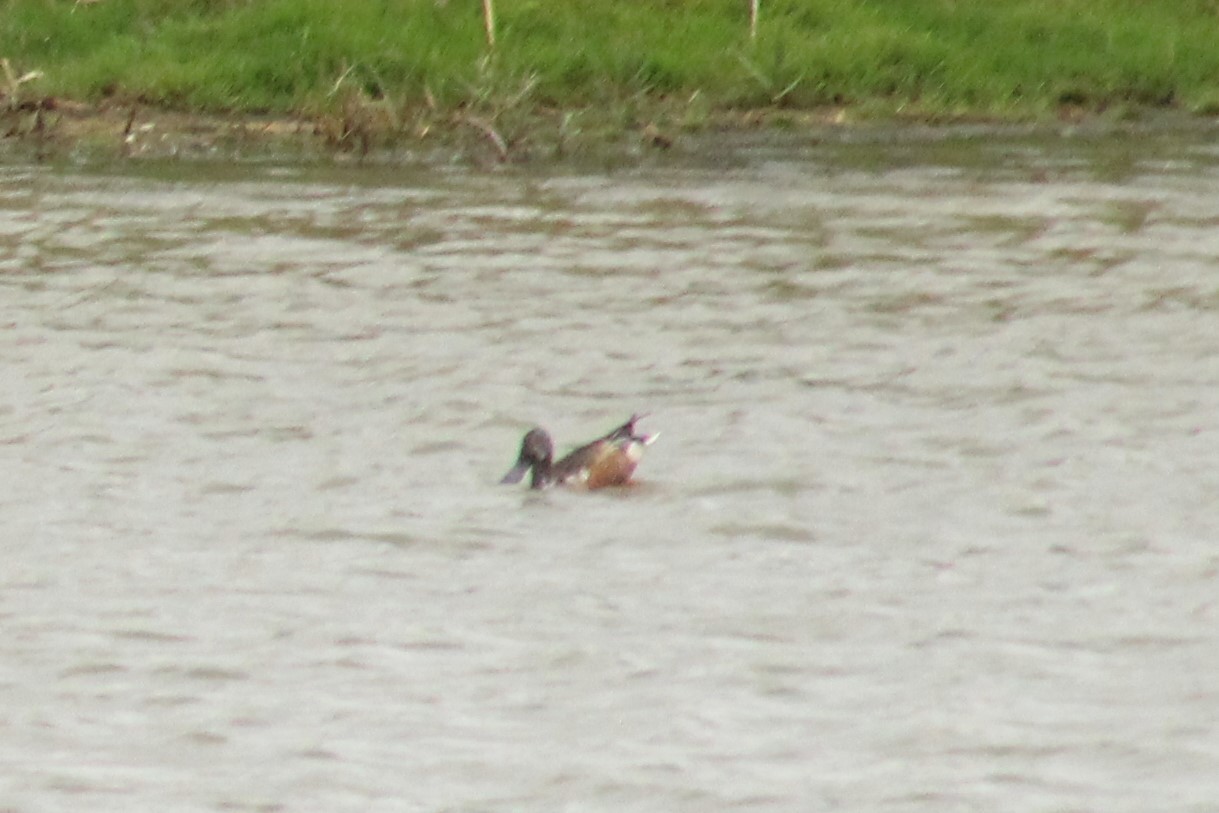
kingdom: Animalia
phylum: Chordata
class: Aves
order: Anseriformes
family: Anatidae
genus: Spatula
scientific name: Spatula clypeata
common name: Northern shoveler
